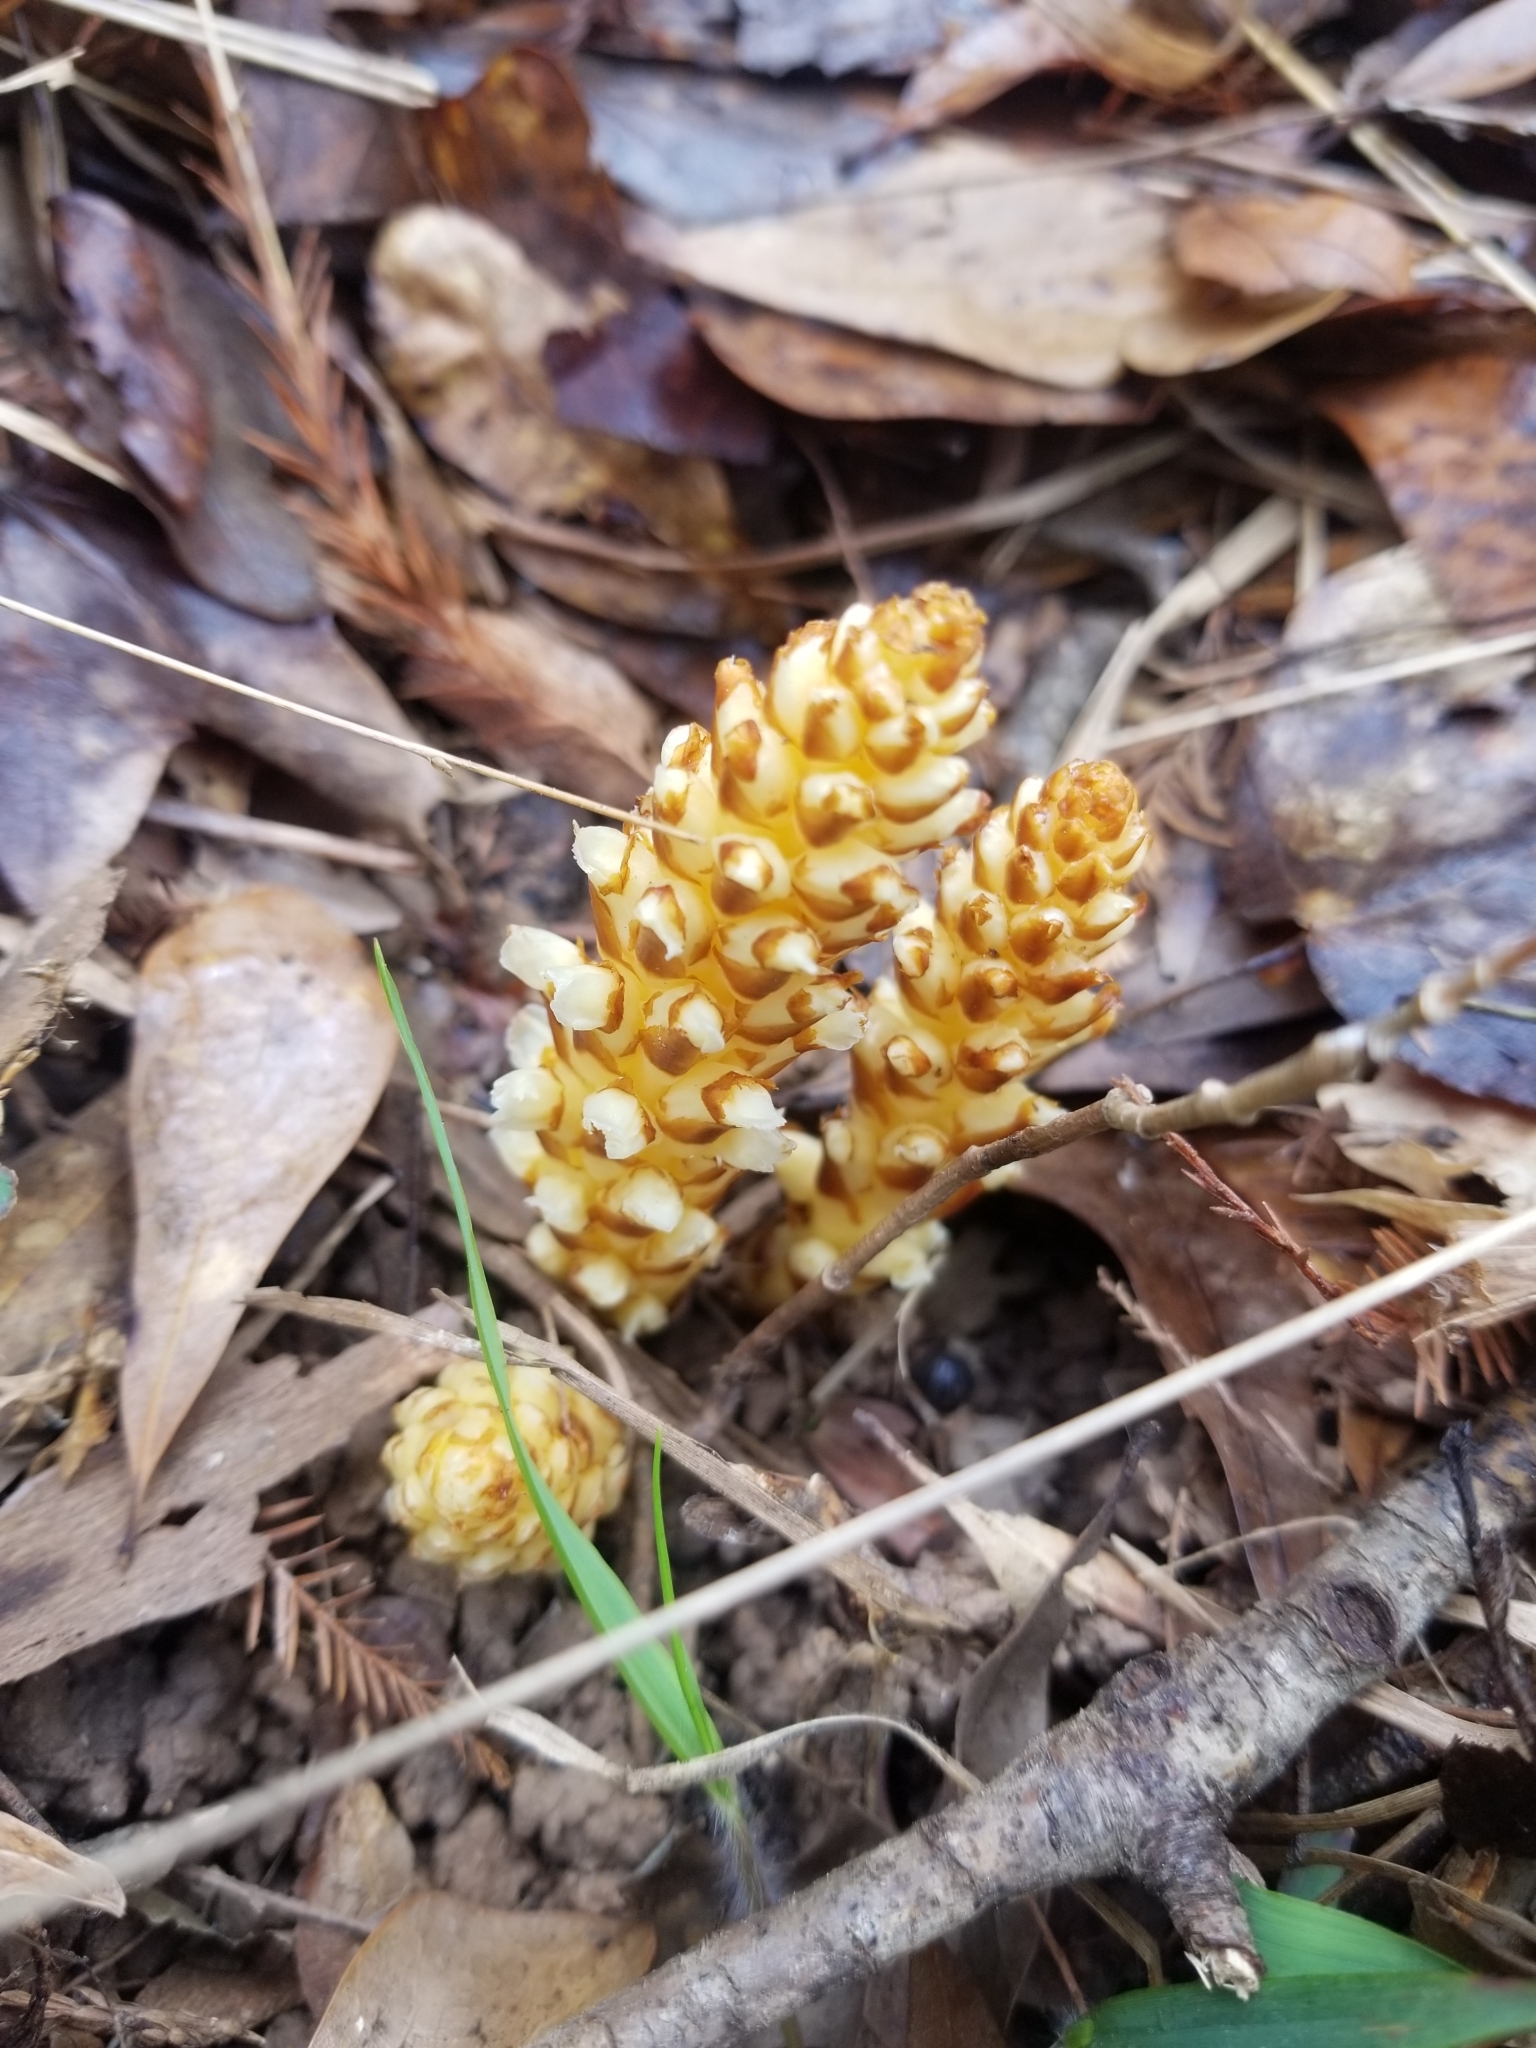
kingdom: Plantae
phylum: Tracheophyta
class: Magnoliopsida
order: Lamiales
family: Orobanchaceae
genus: Conopholis
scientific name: Conopholis americana
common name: American cancer-root
